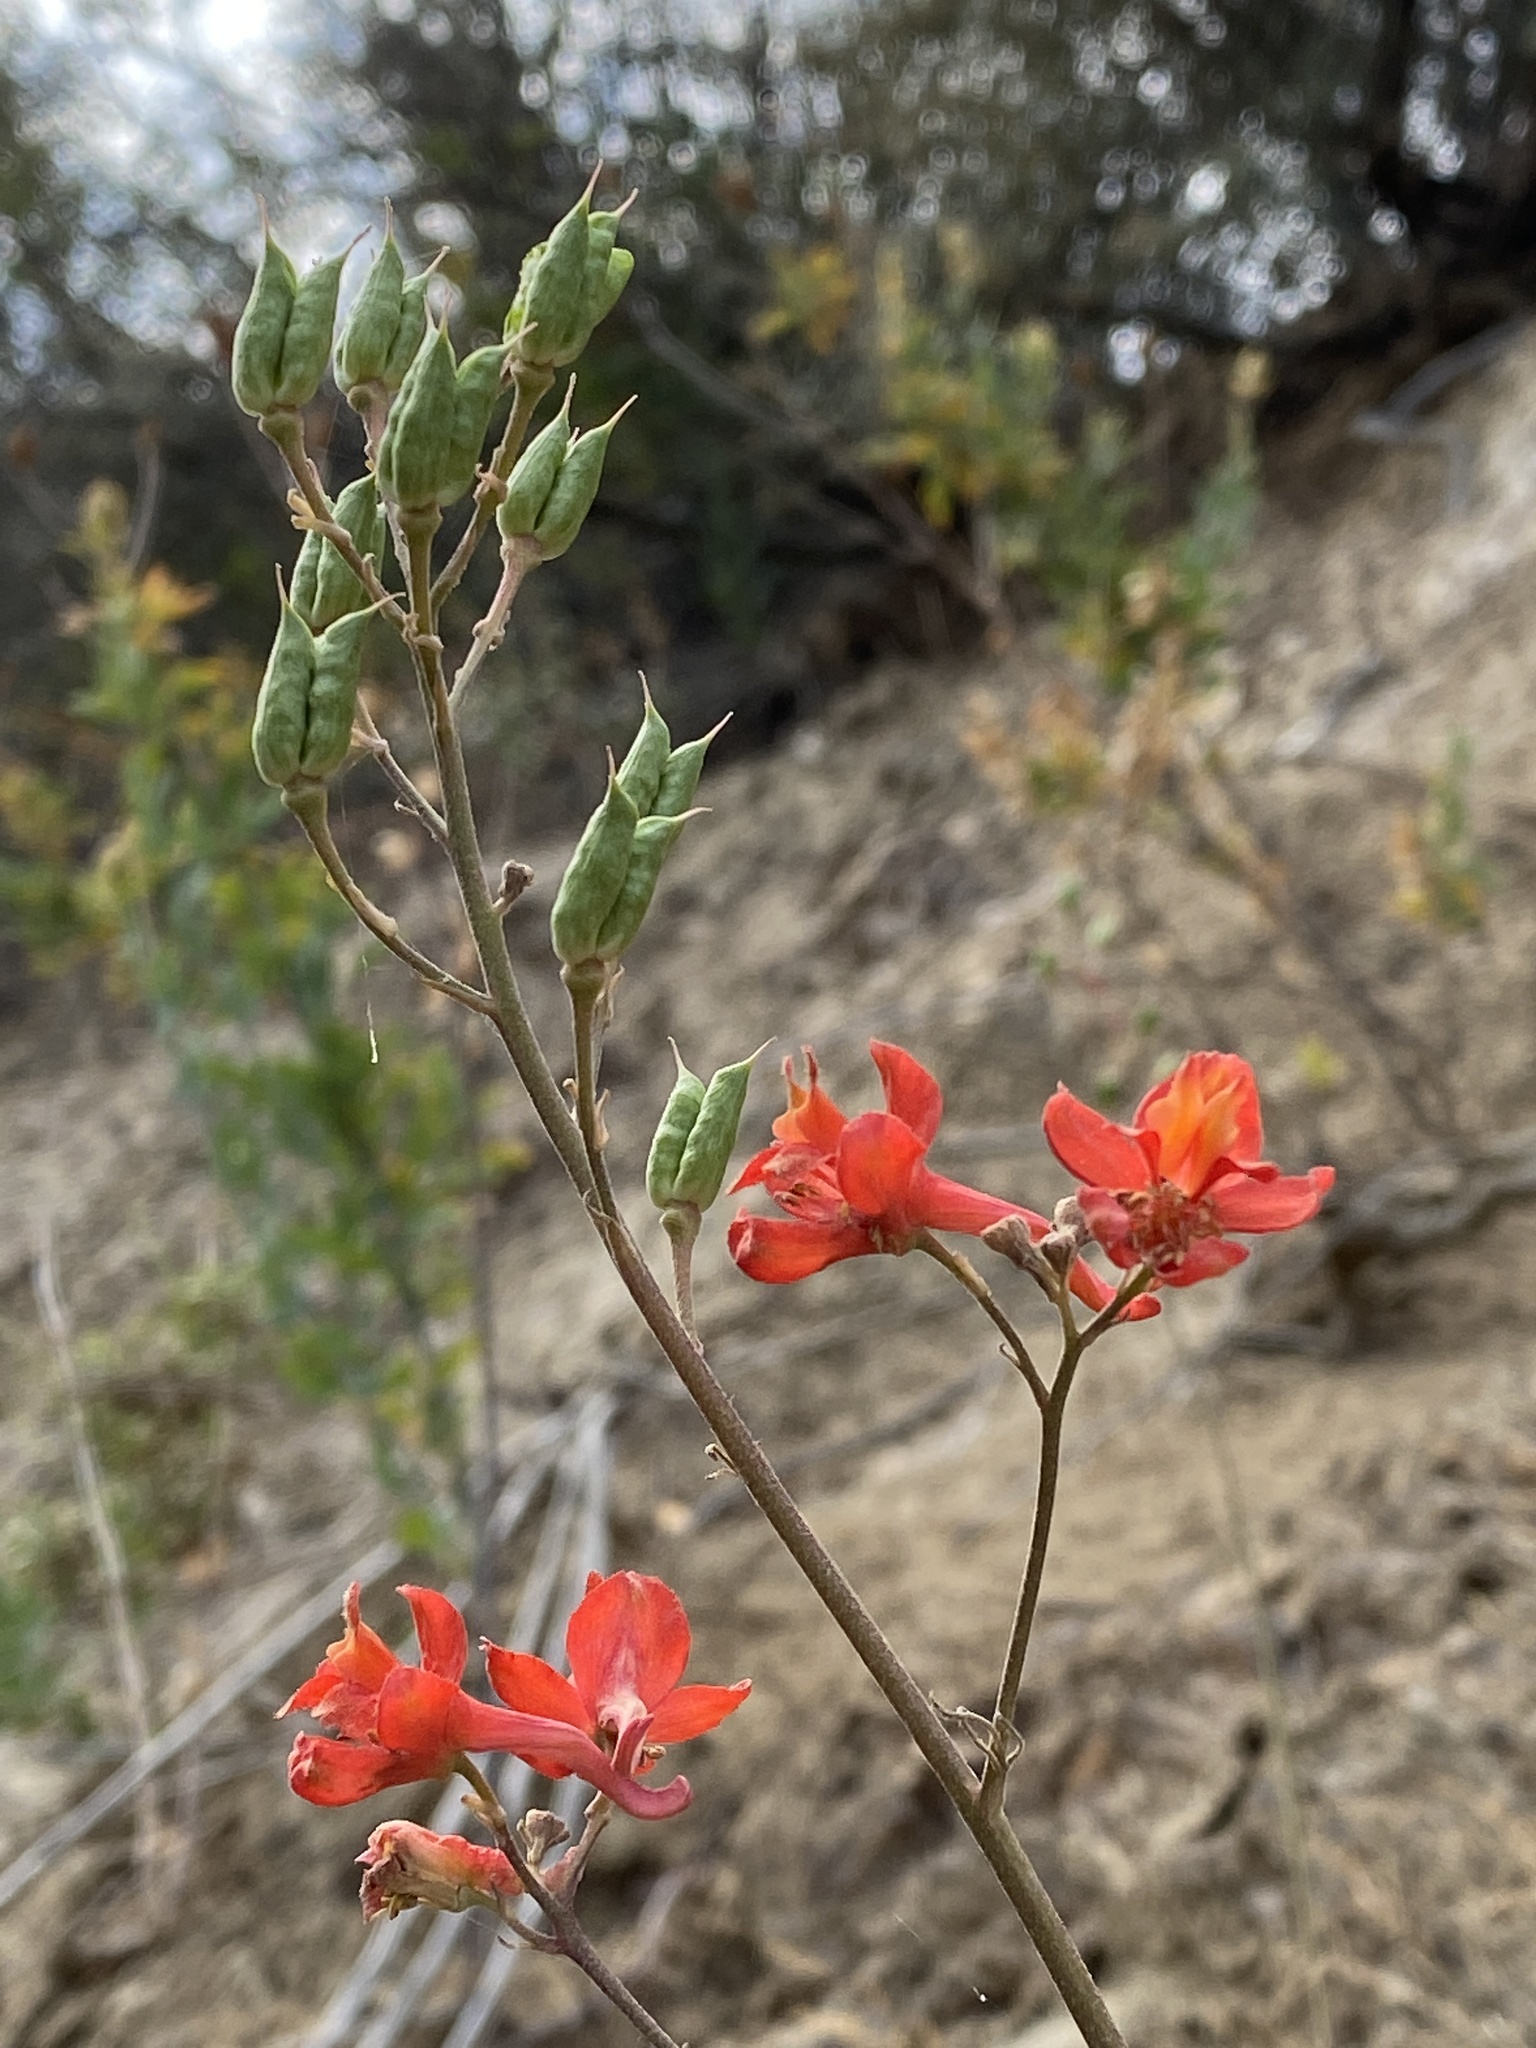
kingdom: Plantae
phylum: Tracheophyta
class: Magnoliopsida
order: Ranunculales
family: Ranunculaceae
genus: Delphinium
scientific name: Delphinium cardinale
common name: Scarlet larkspur
